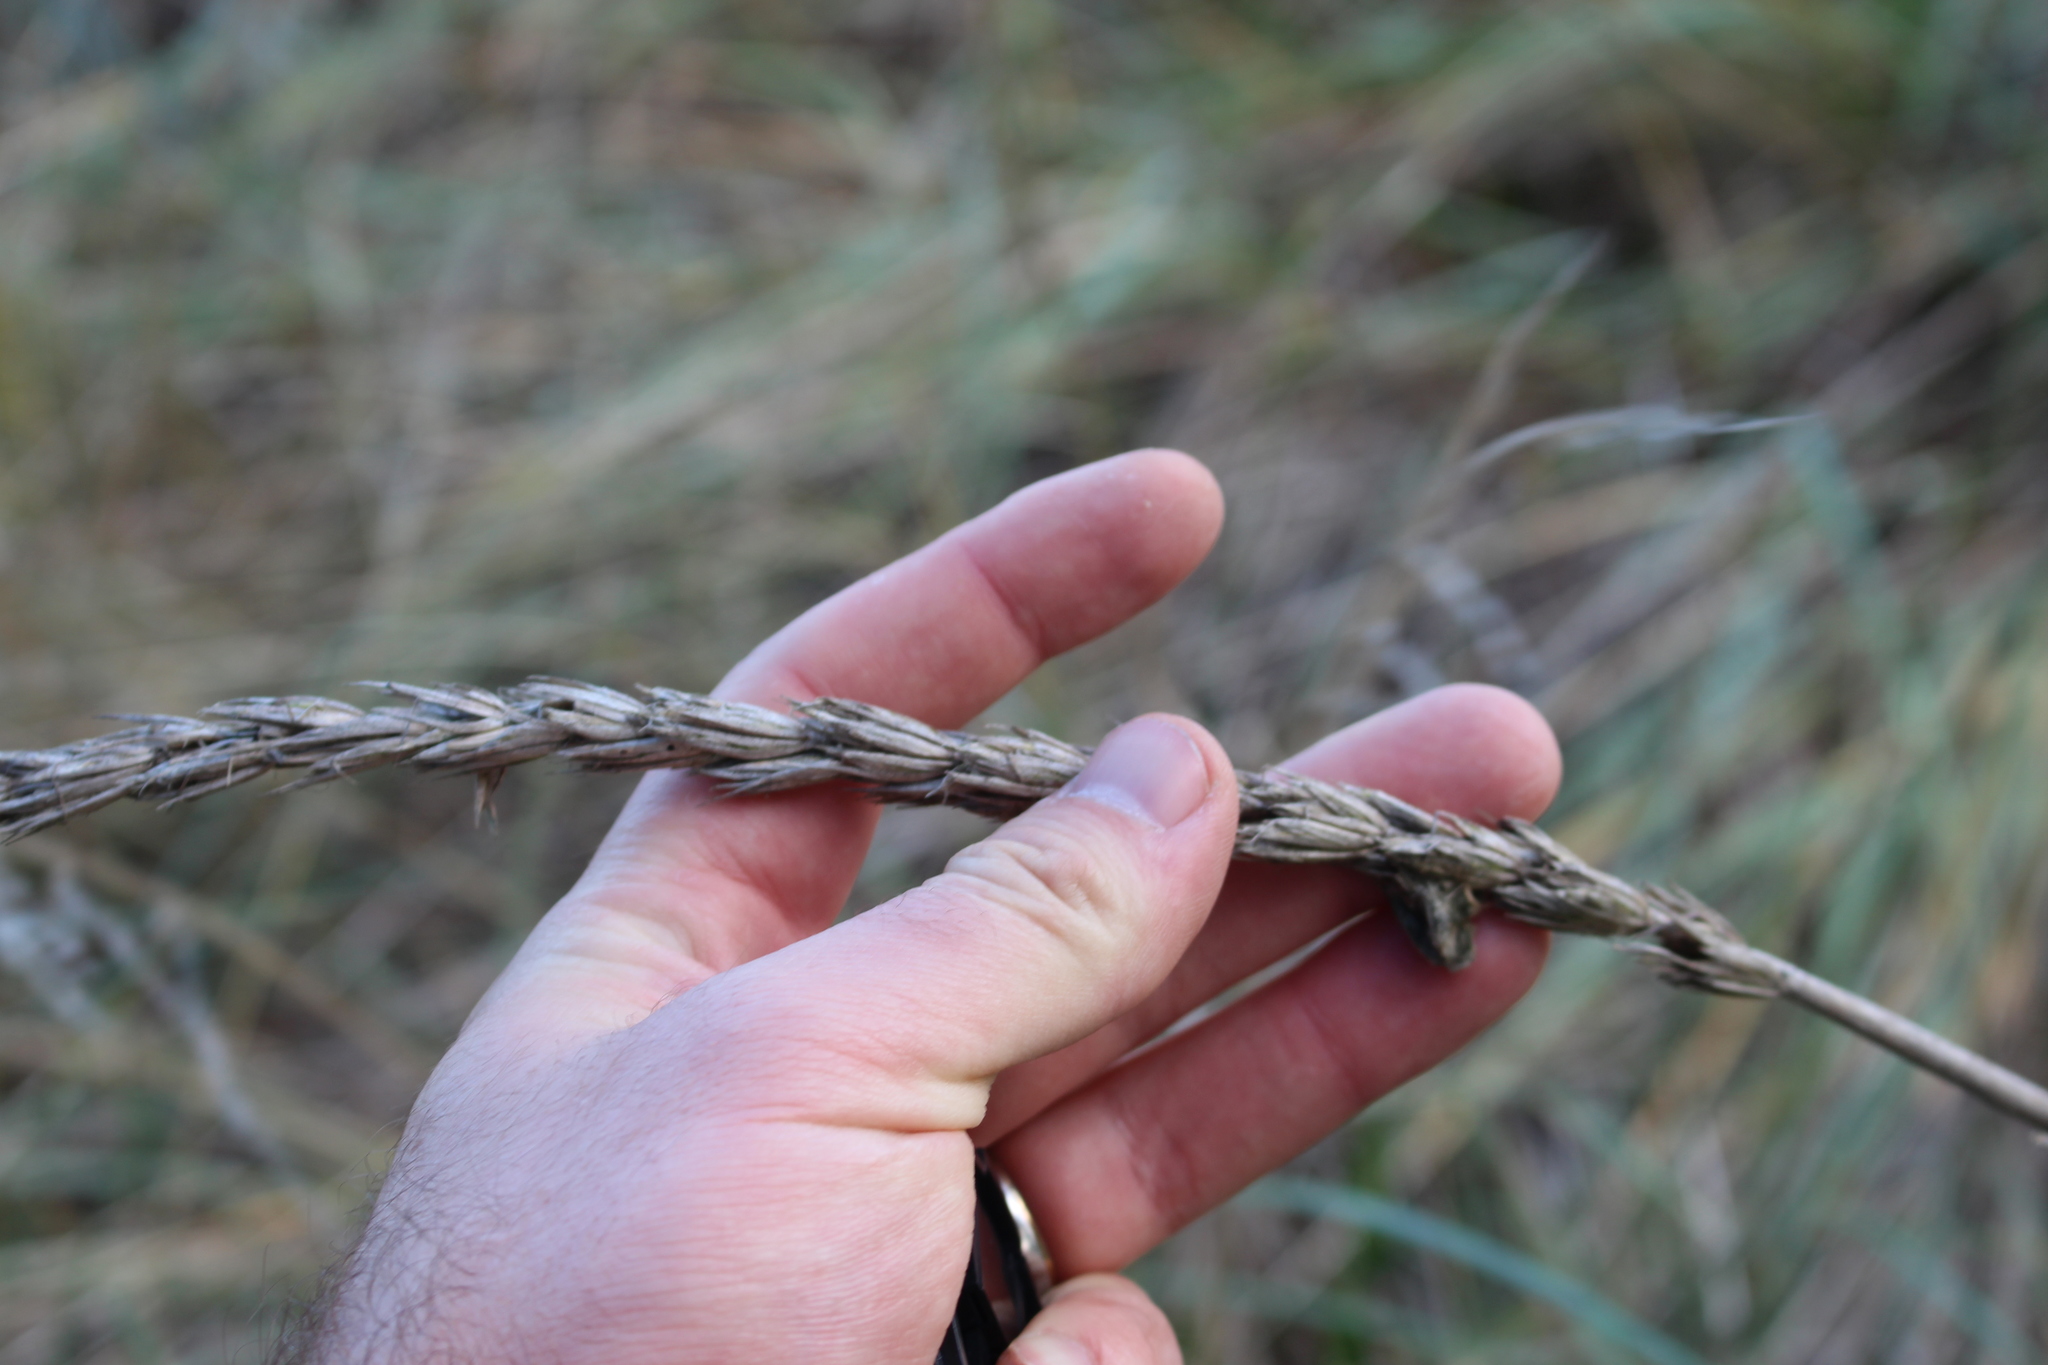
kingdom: Plantae
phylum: Tracheophyta
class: Liliopsida
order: Poales
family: Poaceae
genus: Leymus
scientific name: Leymus racemosus
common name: Mammoth wildrye
